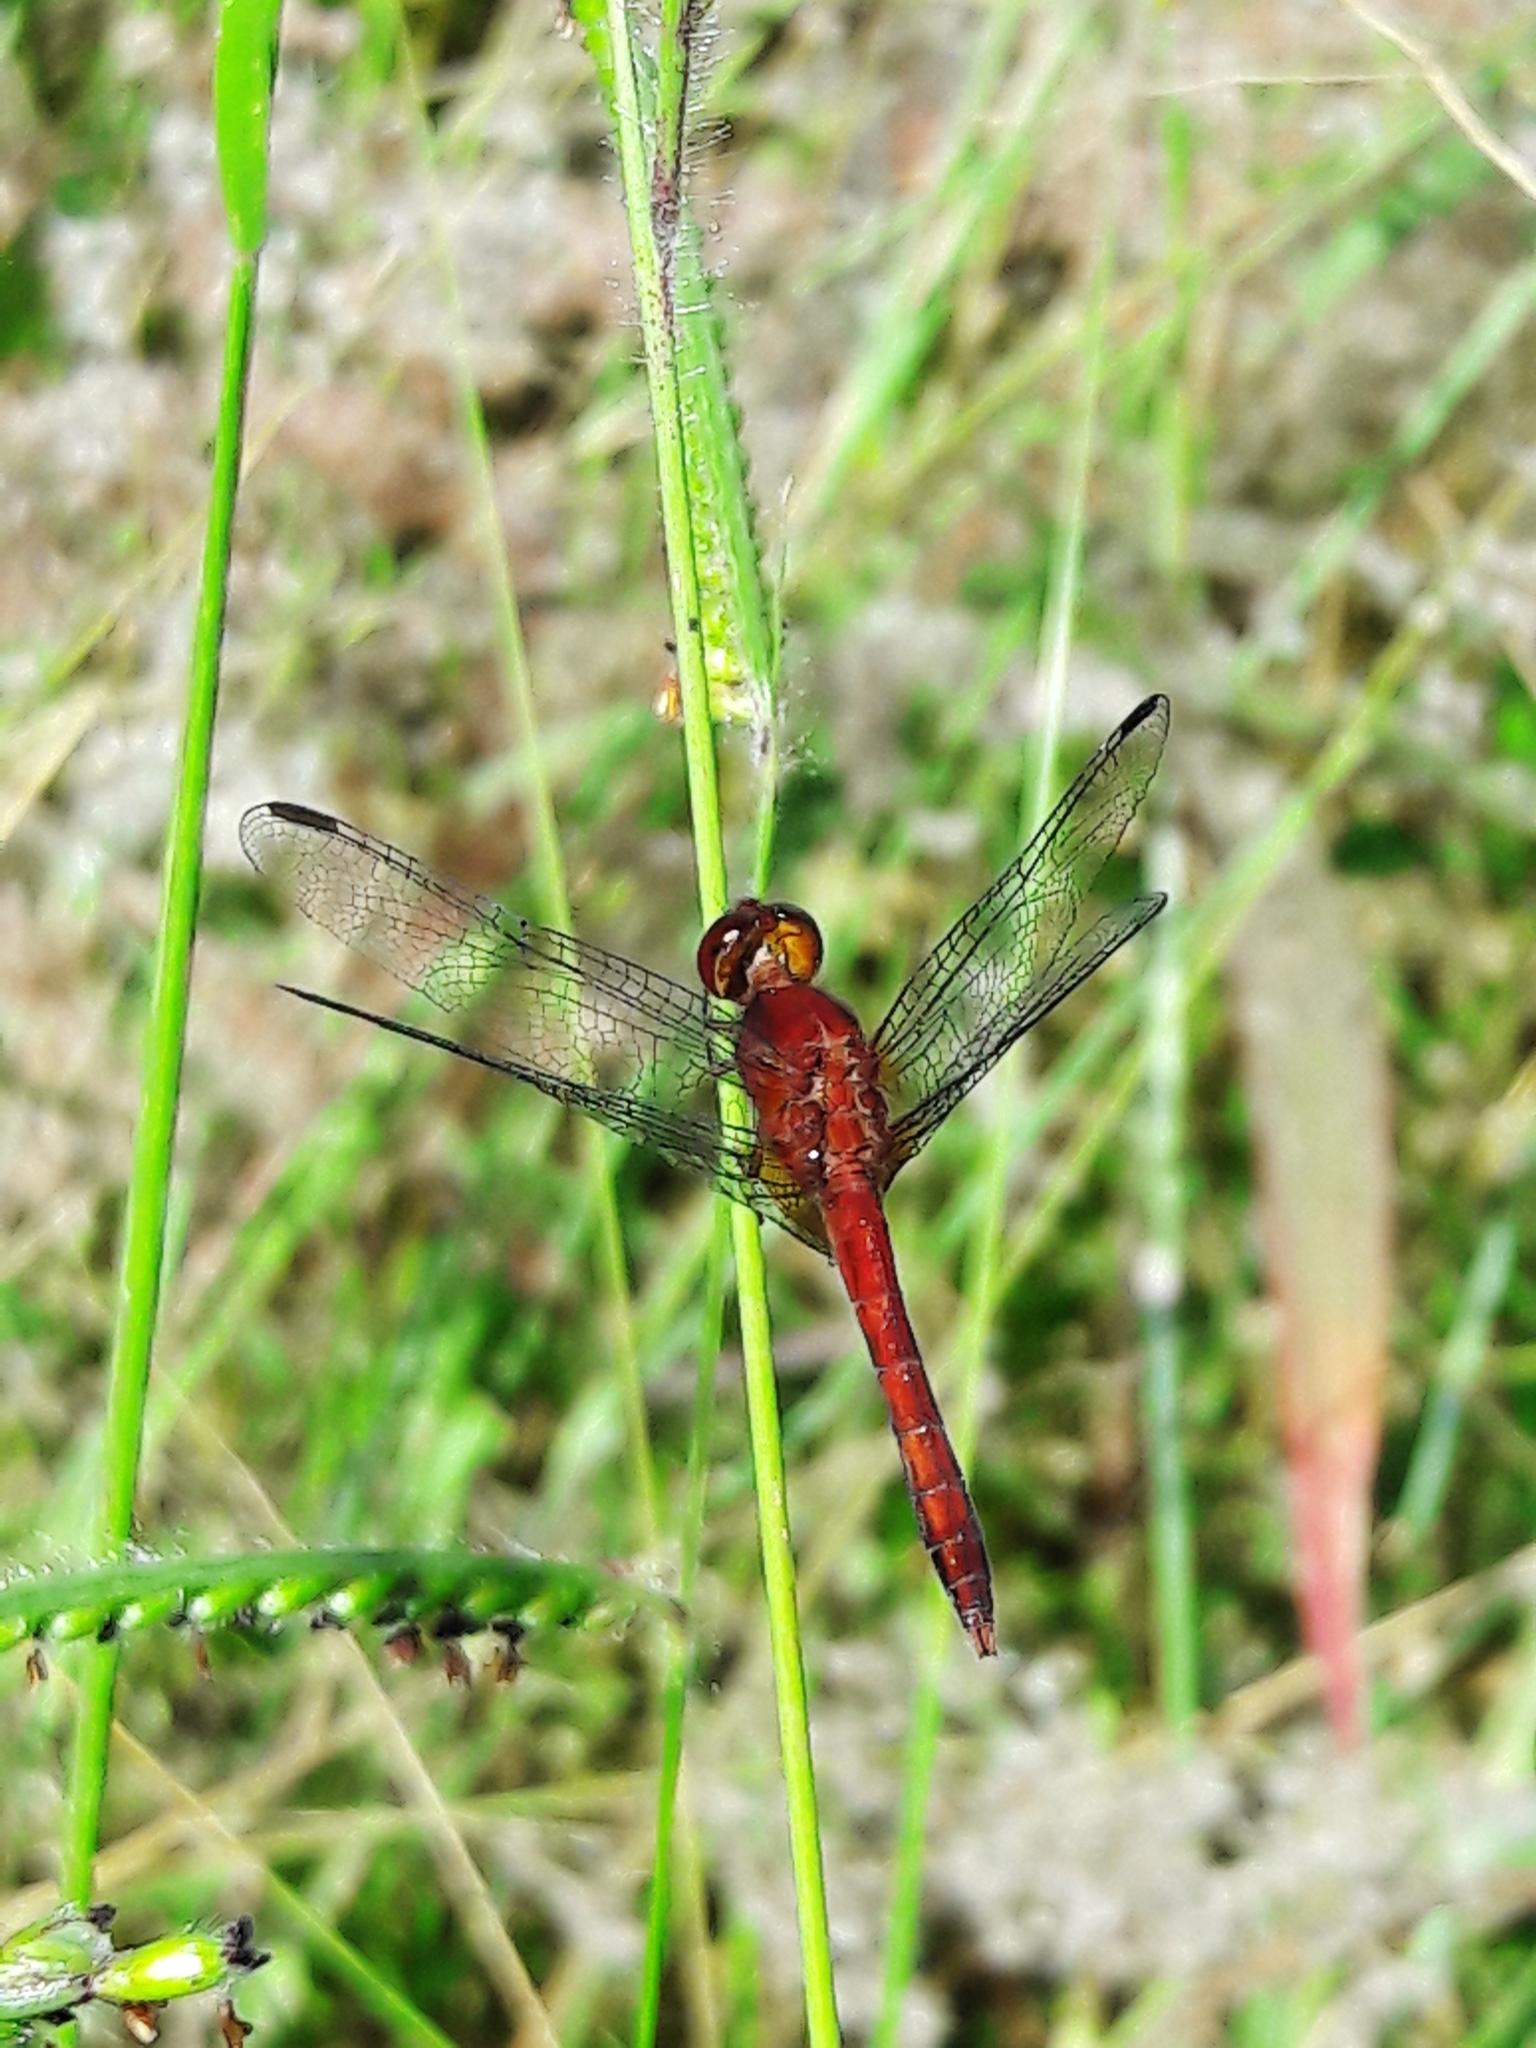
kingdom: Animalia
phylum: Arthropoda
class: Insecta
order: Odonata
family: Libellulidae
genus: Erythrodiplax
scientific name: Erythrodiplax fusca
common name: Red-faced dragonlet
